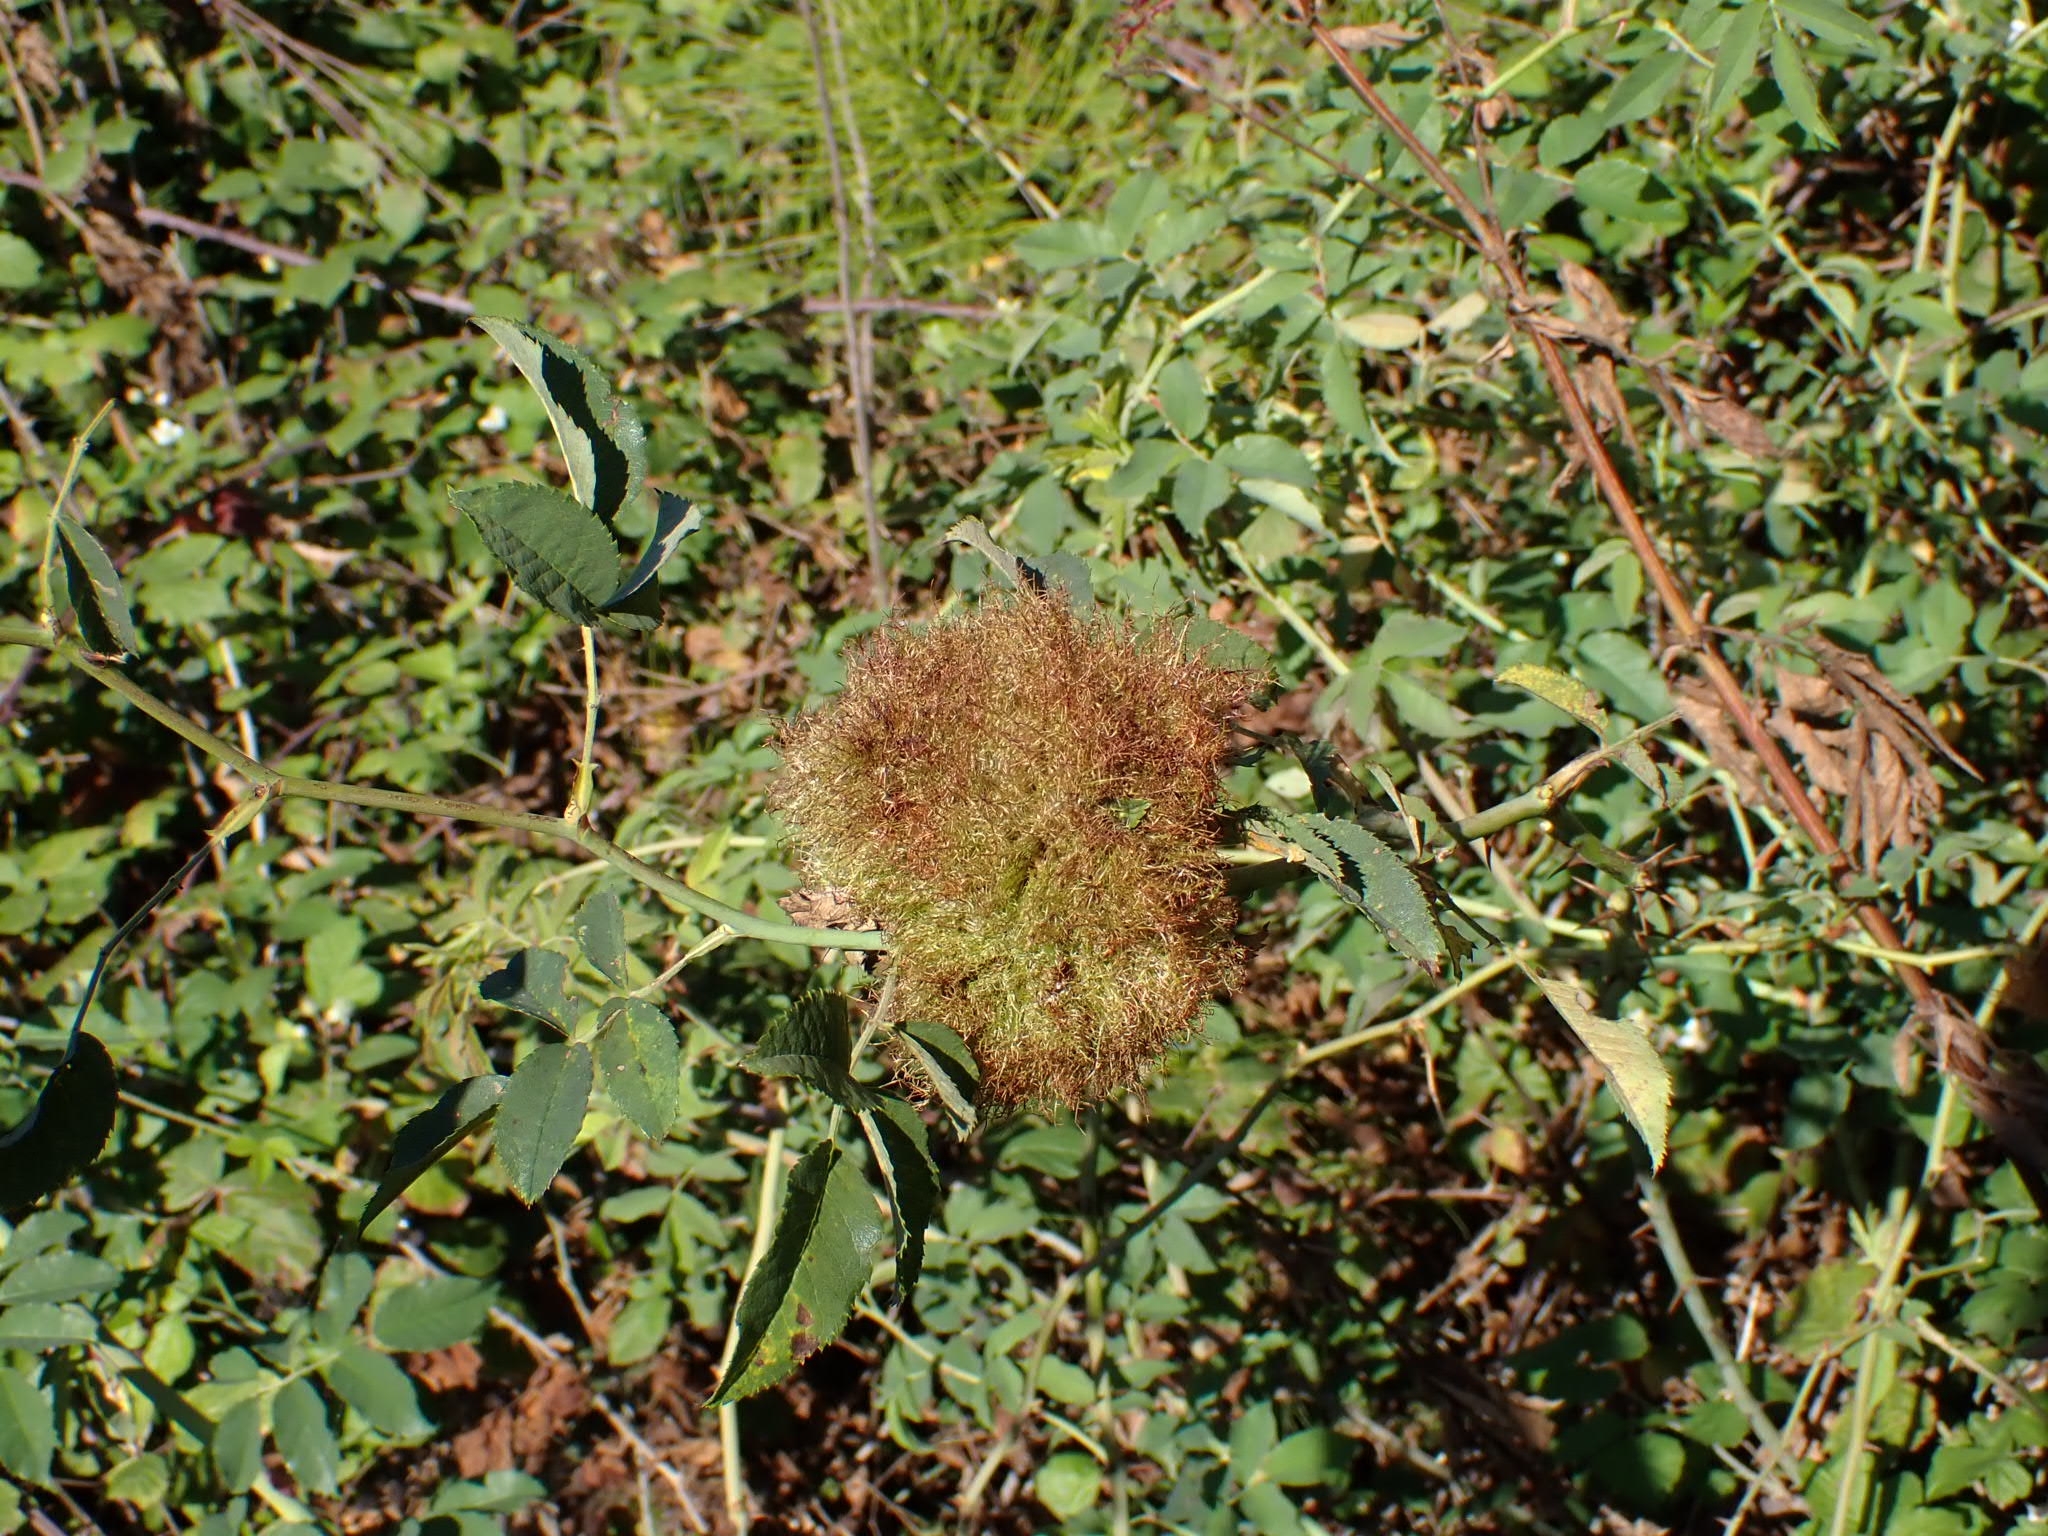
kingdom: Animalia
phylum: Arthropoda
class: Insecta
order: Hymenoptera
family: Cynipidae
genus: Diplolepis
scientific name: Diplolepis rosae
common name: Bedeguar gall
